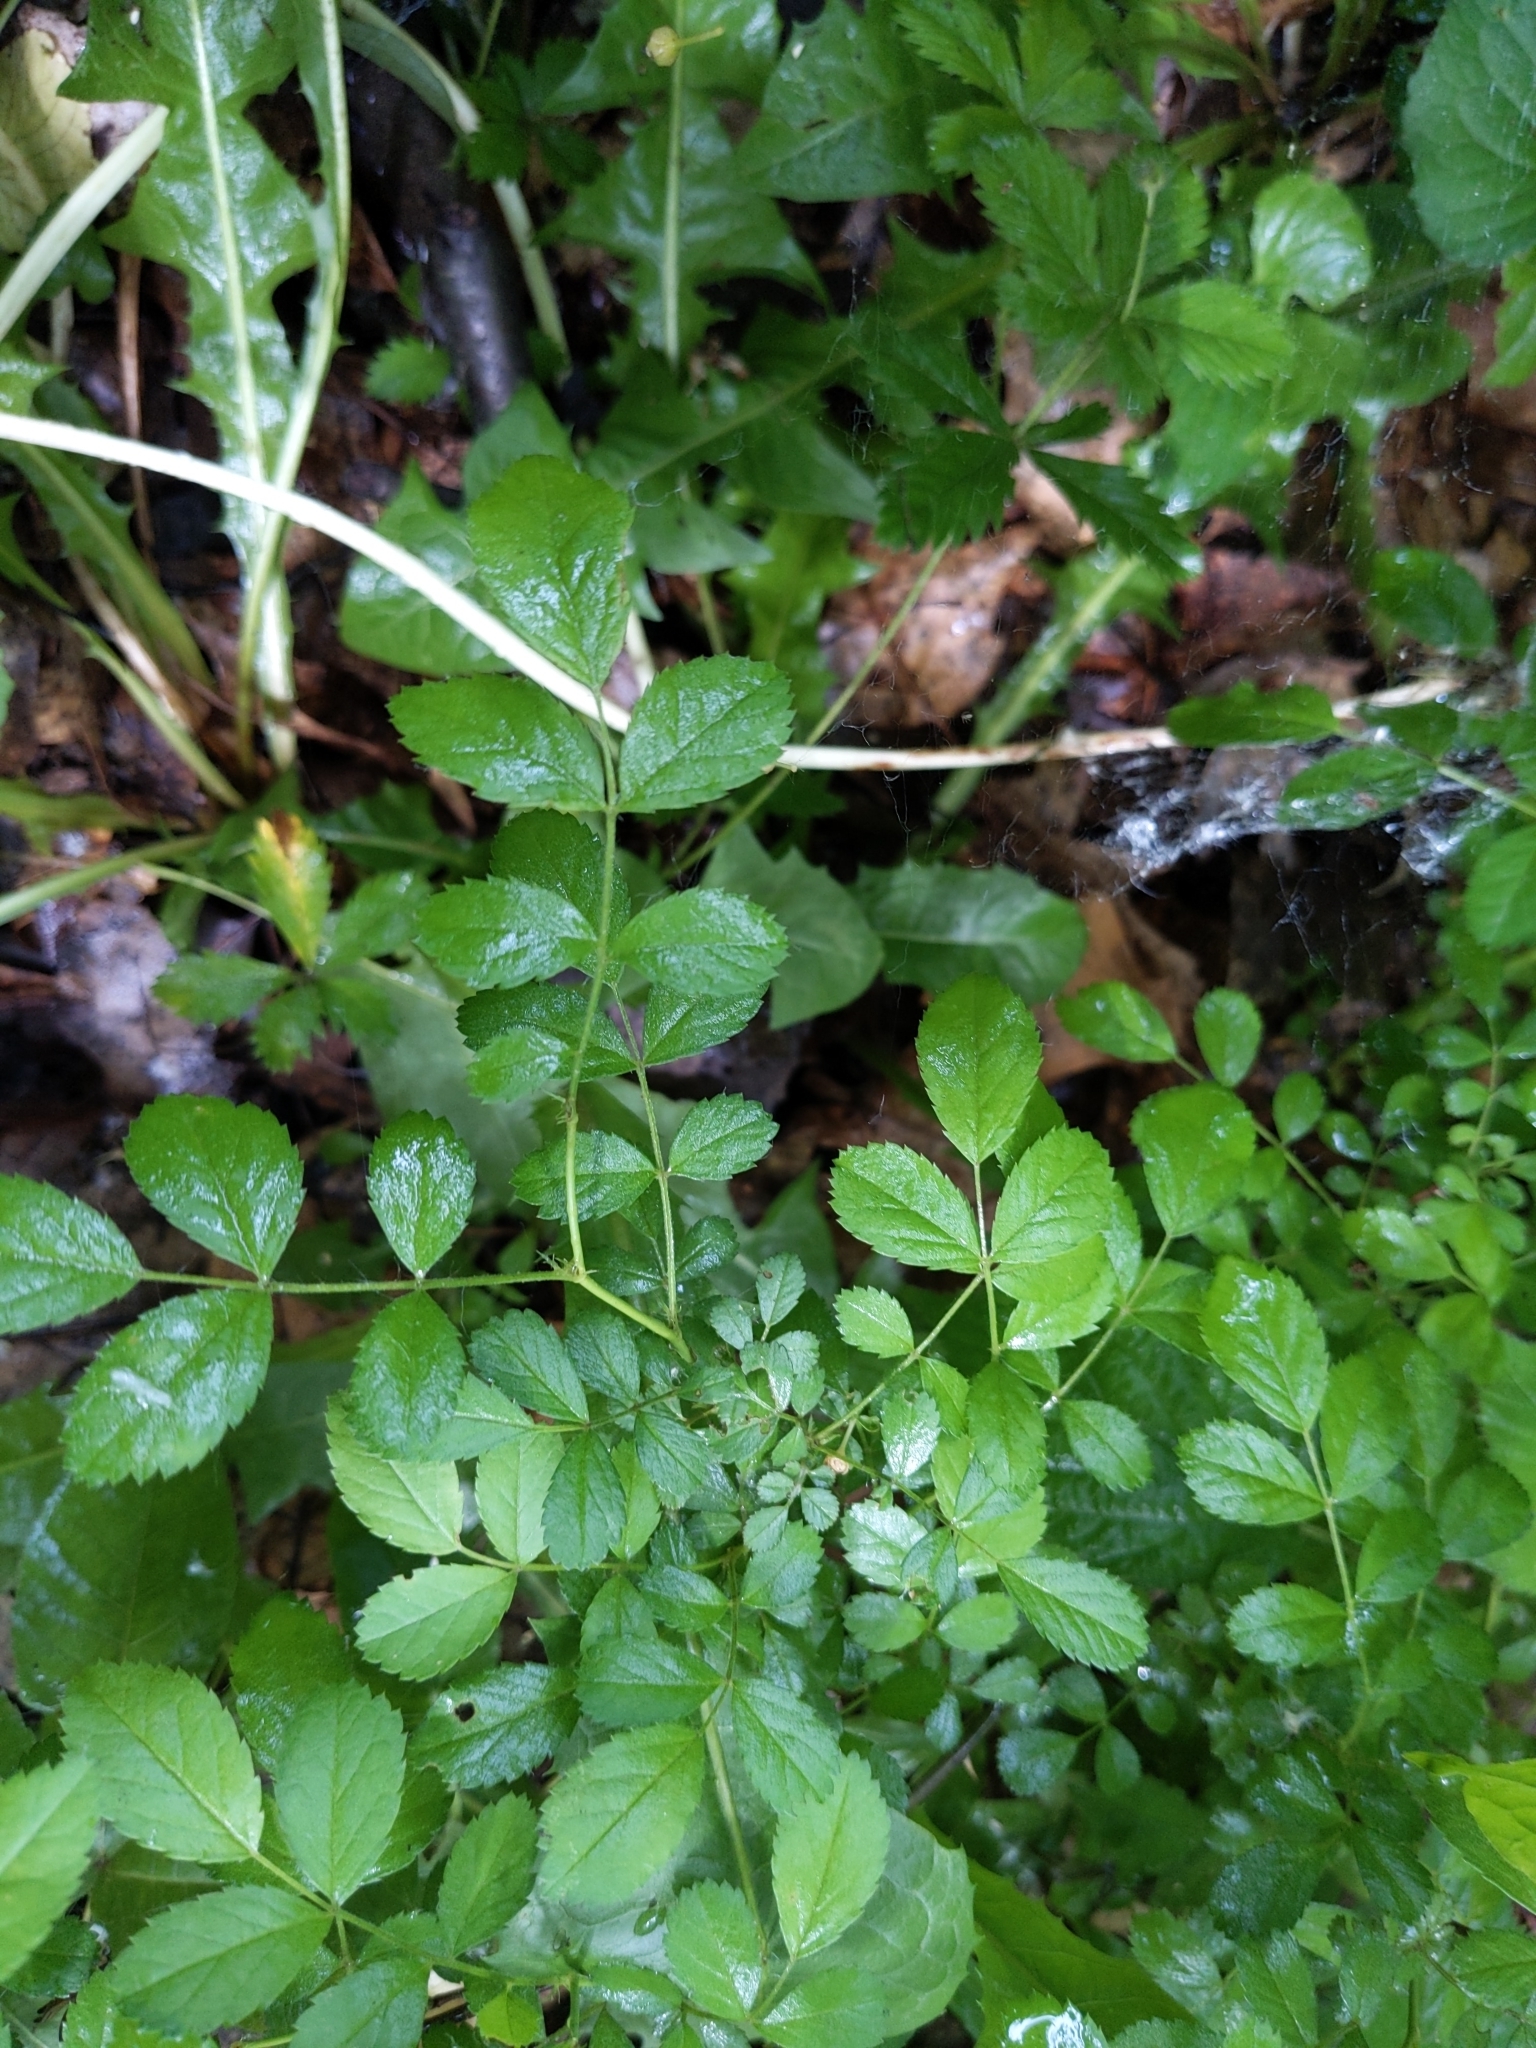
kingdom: Plantae
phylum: Tracheophyta
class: Magnoliopsida
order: Rosales
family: Rosaceae
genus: Rosa
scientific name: Rosa multiflora
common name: Multiflora rose
